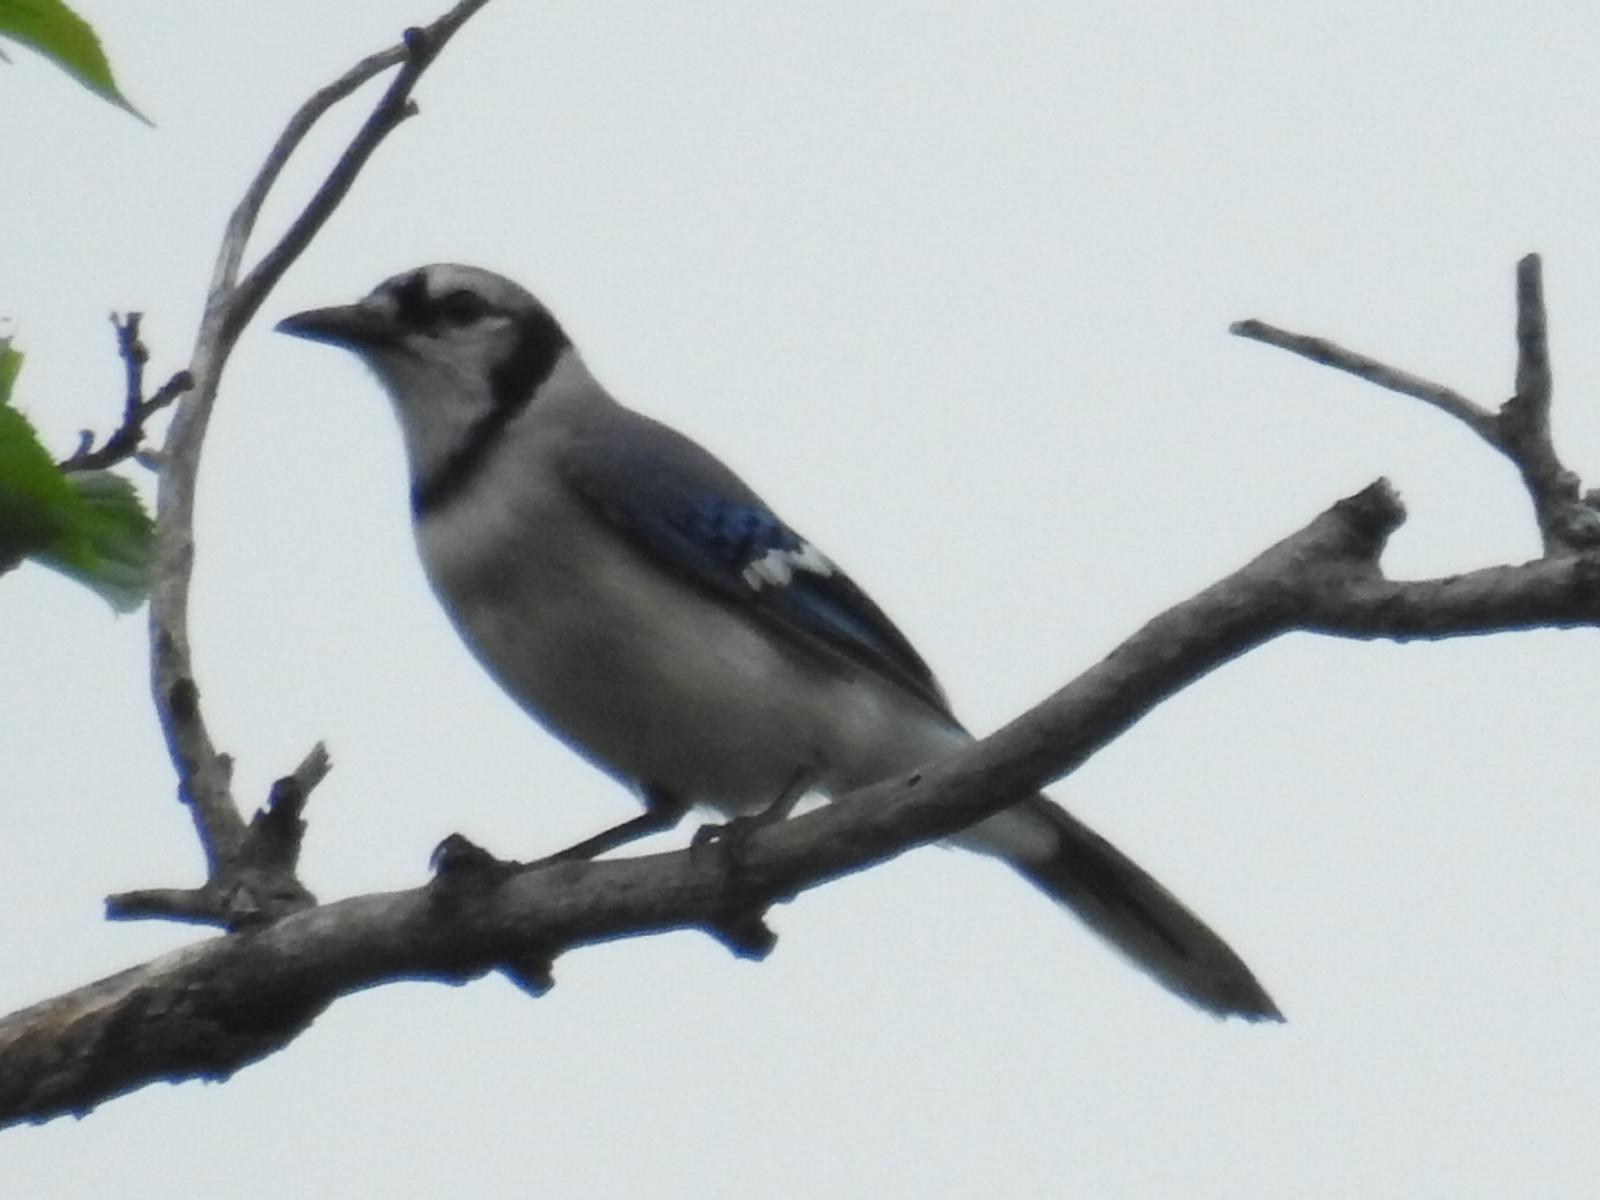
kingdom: Animalia
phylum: Chordata
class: Aves
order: Passeriformes
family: Corvidae
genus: Cyanocitta
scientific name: Cyanocitta cristata
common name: Blue jay
